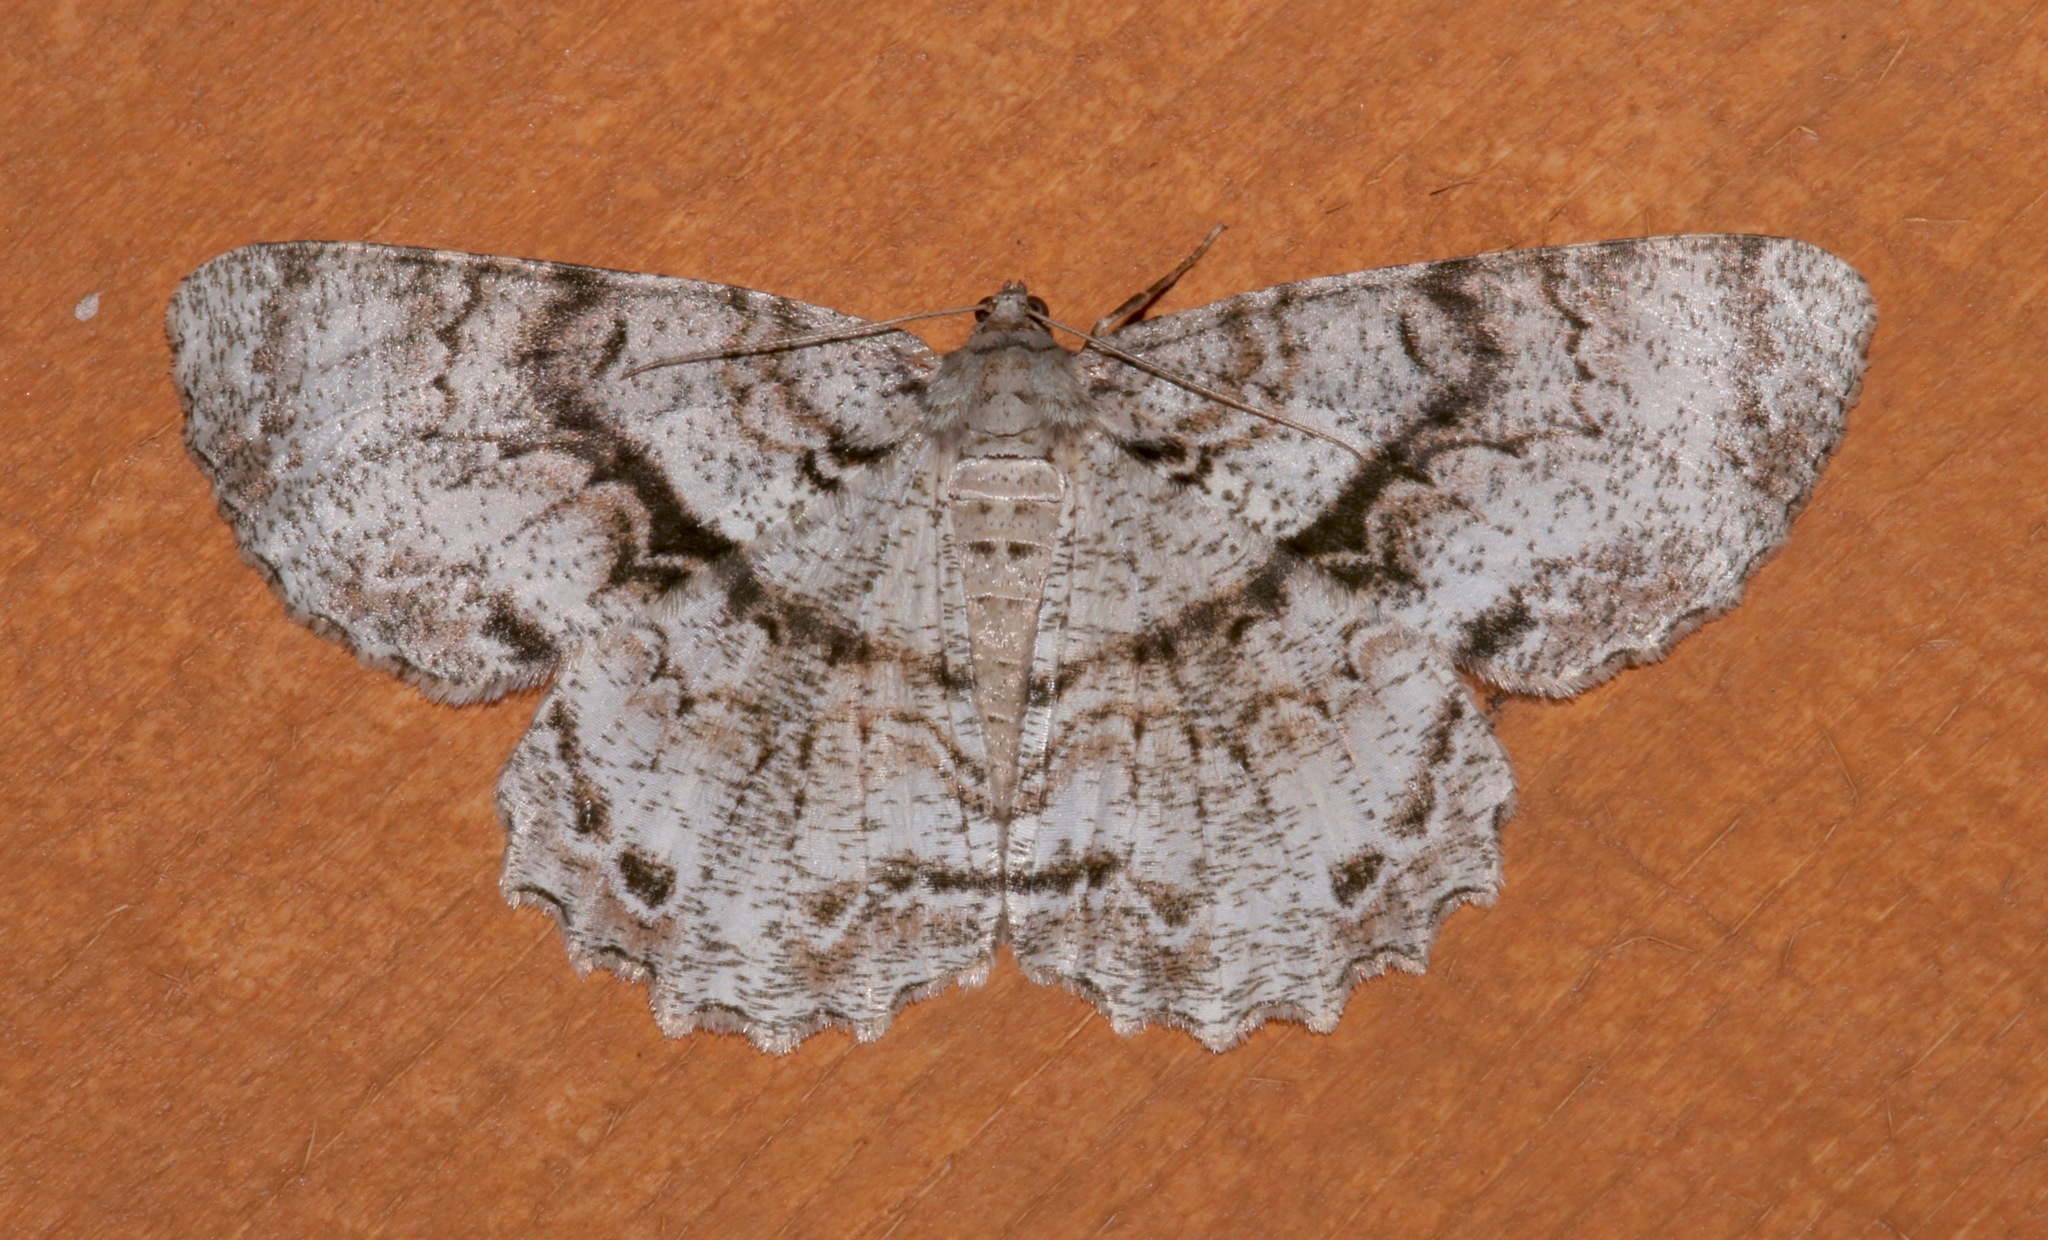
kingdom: Animalia
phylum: Arthropoda
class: Insecta
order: Lepidoptera
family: Geometridae
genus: Epimecis
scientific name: Epimecis hortaria
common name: Tulip-tree beauty
